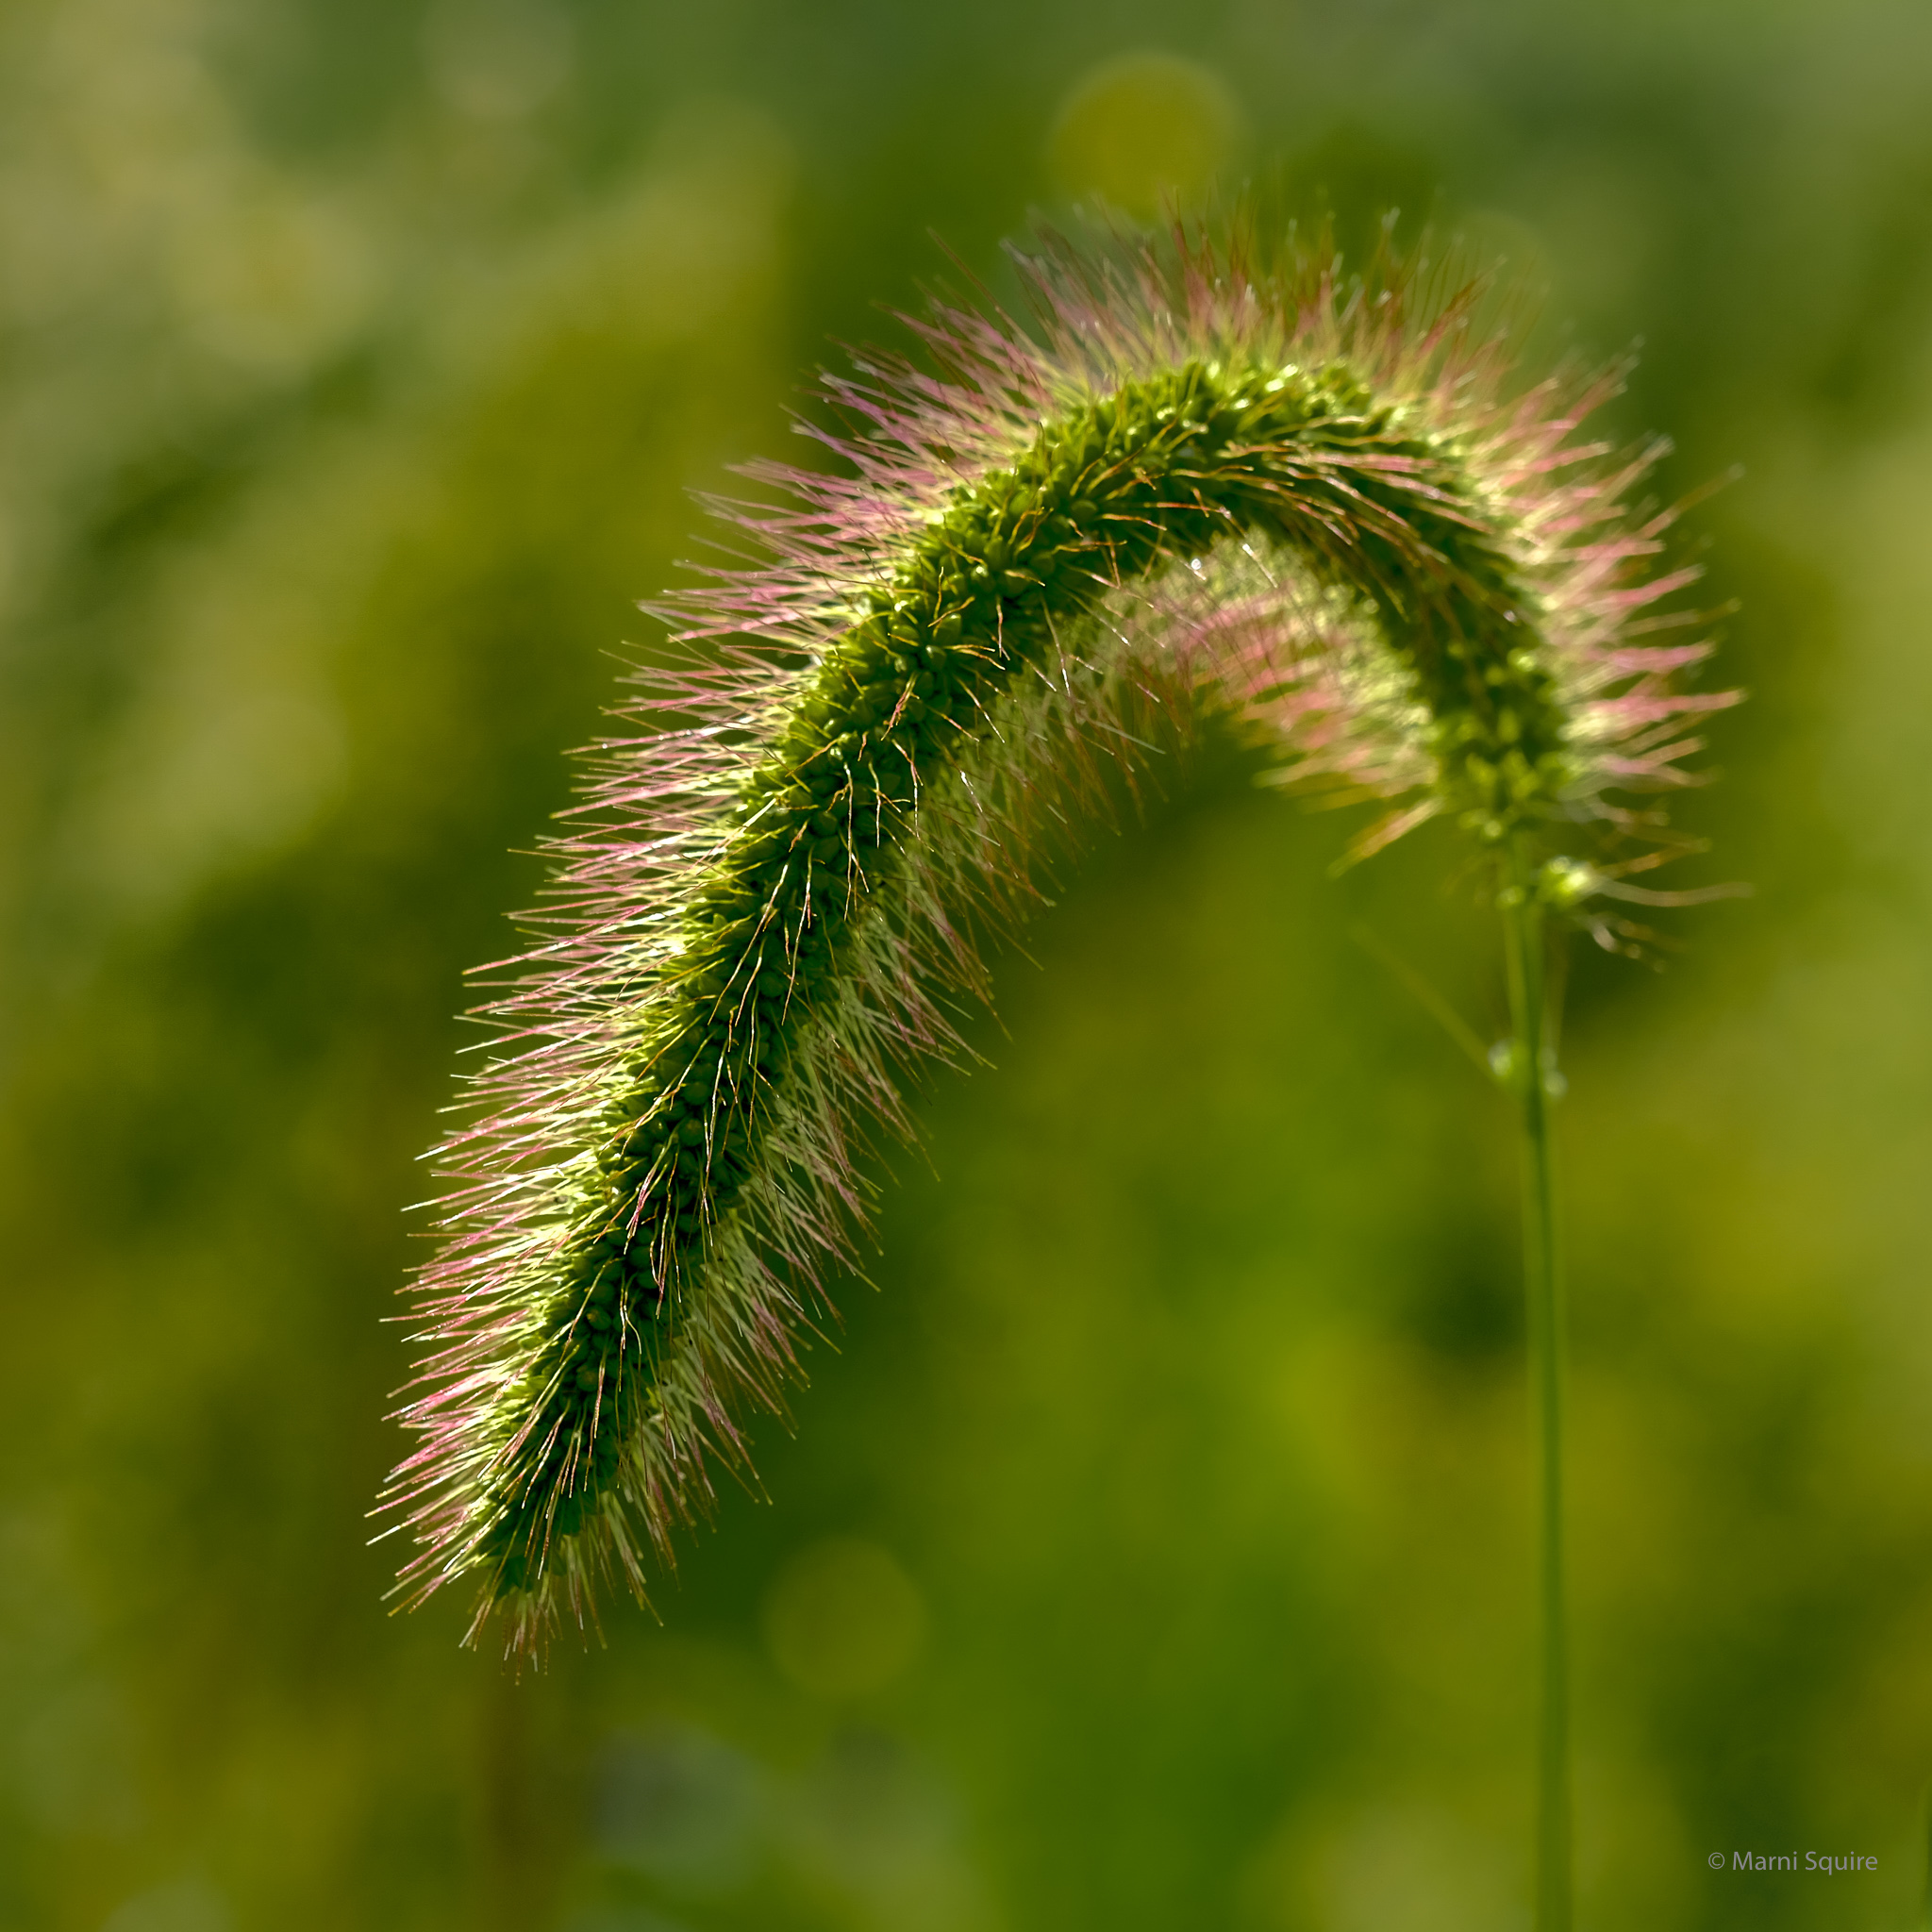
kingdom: Plantae
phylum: Tracheophyta
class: Liliopsida
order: Poales
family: Poaceae
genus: Setaria
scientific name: Setaria faberi
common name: Nodding bristle-grass
